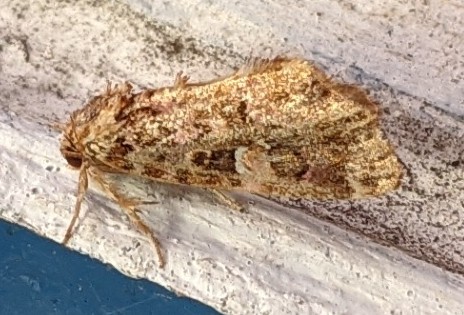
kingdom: Animalia
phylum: Arthropoda
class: Insecta
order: Lepidoptera
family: Noctuidae
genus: Callopistria
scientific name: Callopistria mollissima
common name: Pink-shaded fern moth
